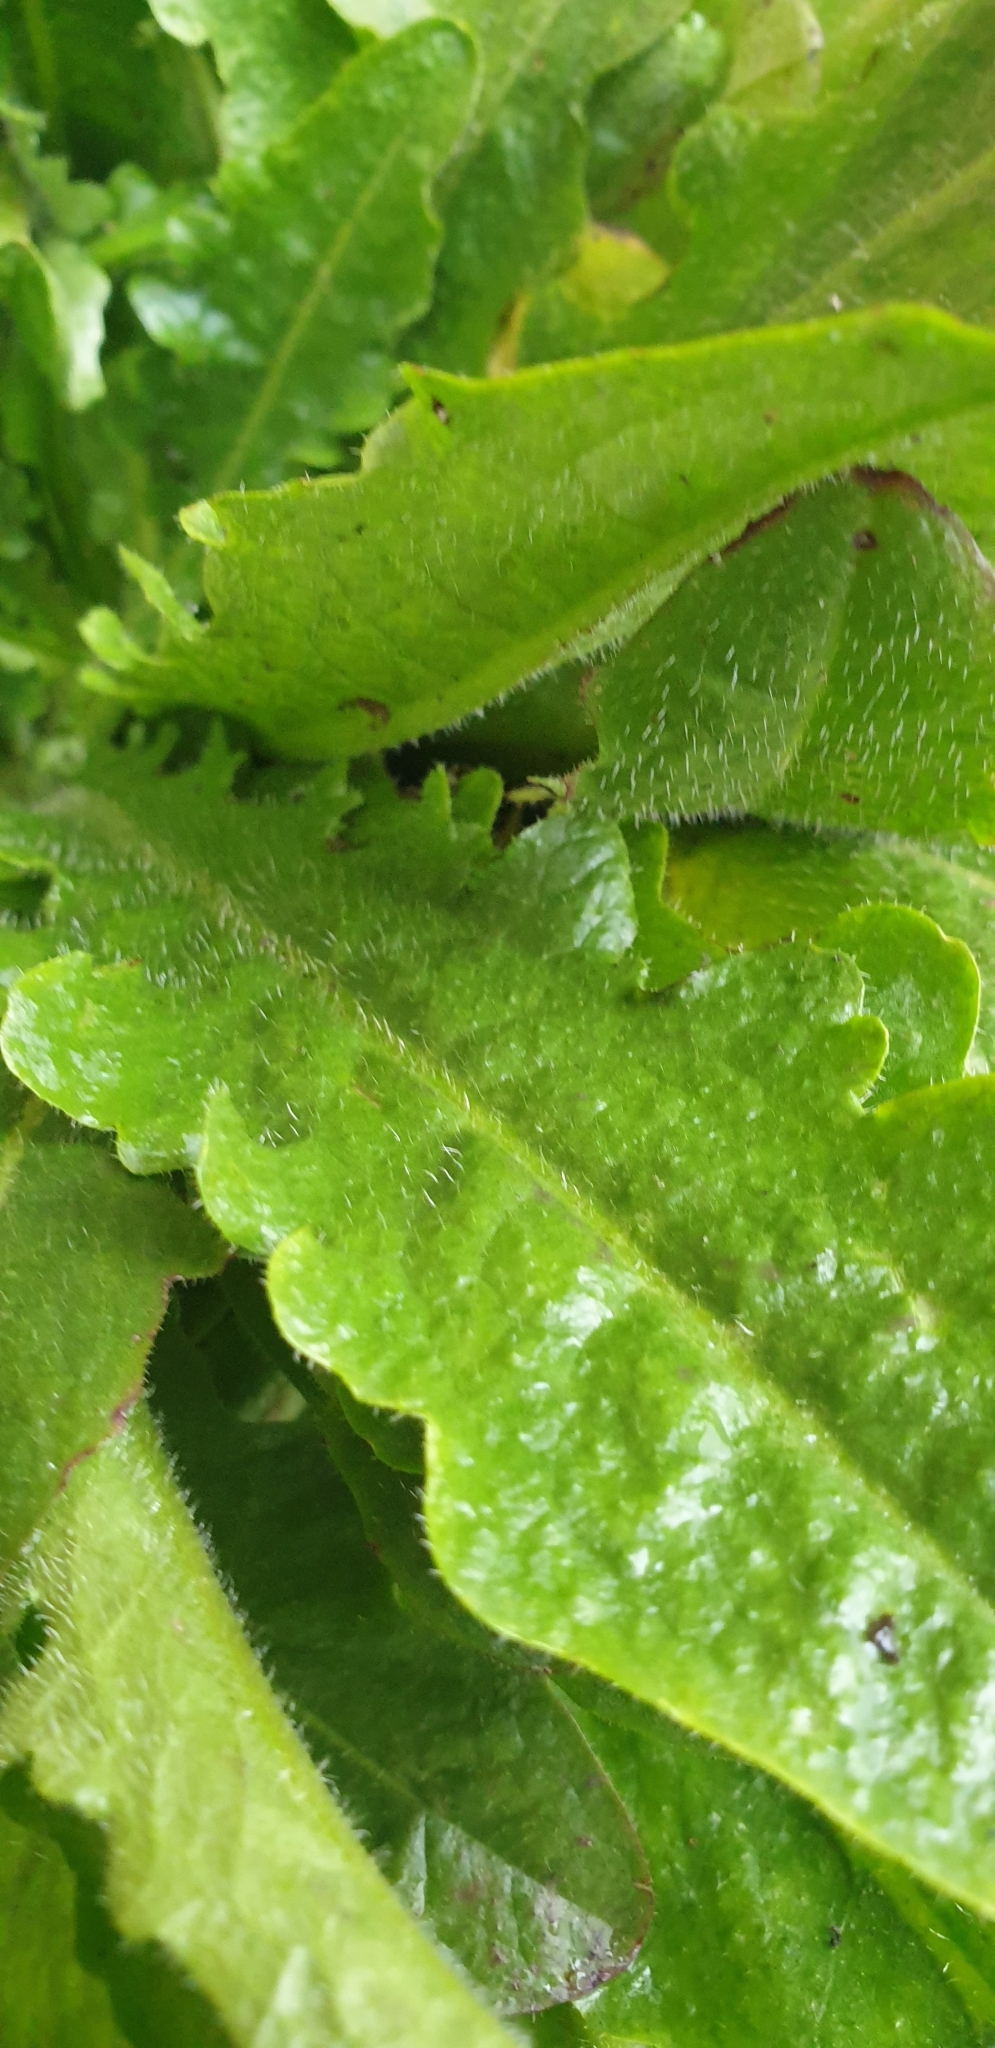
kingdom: Plantae
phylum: Tracheophyta
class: Magnoliopsida
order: Asterales
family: Asteraceae
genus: Hypochaeris
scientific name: Hypochaeris radicata
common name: Flatweed
